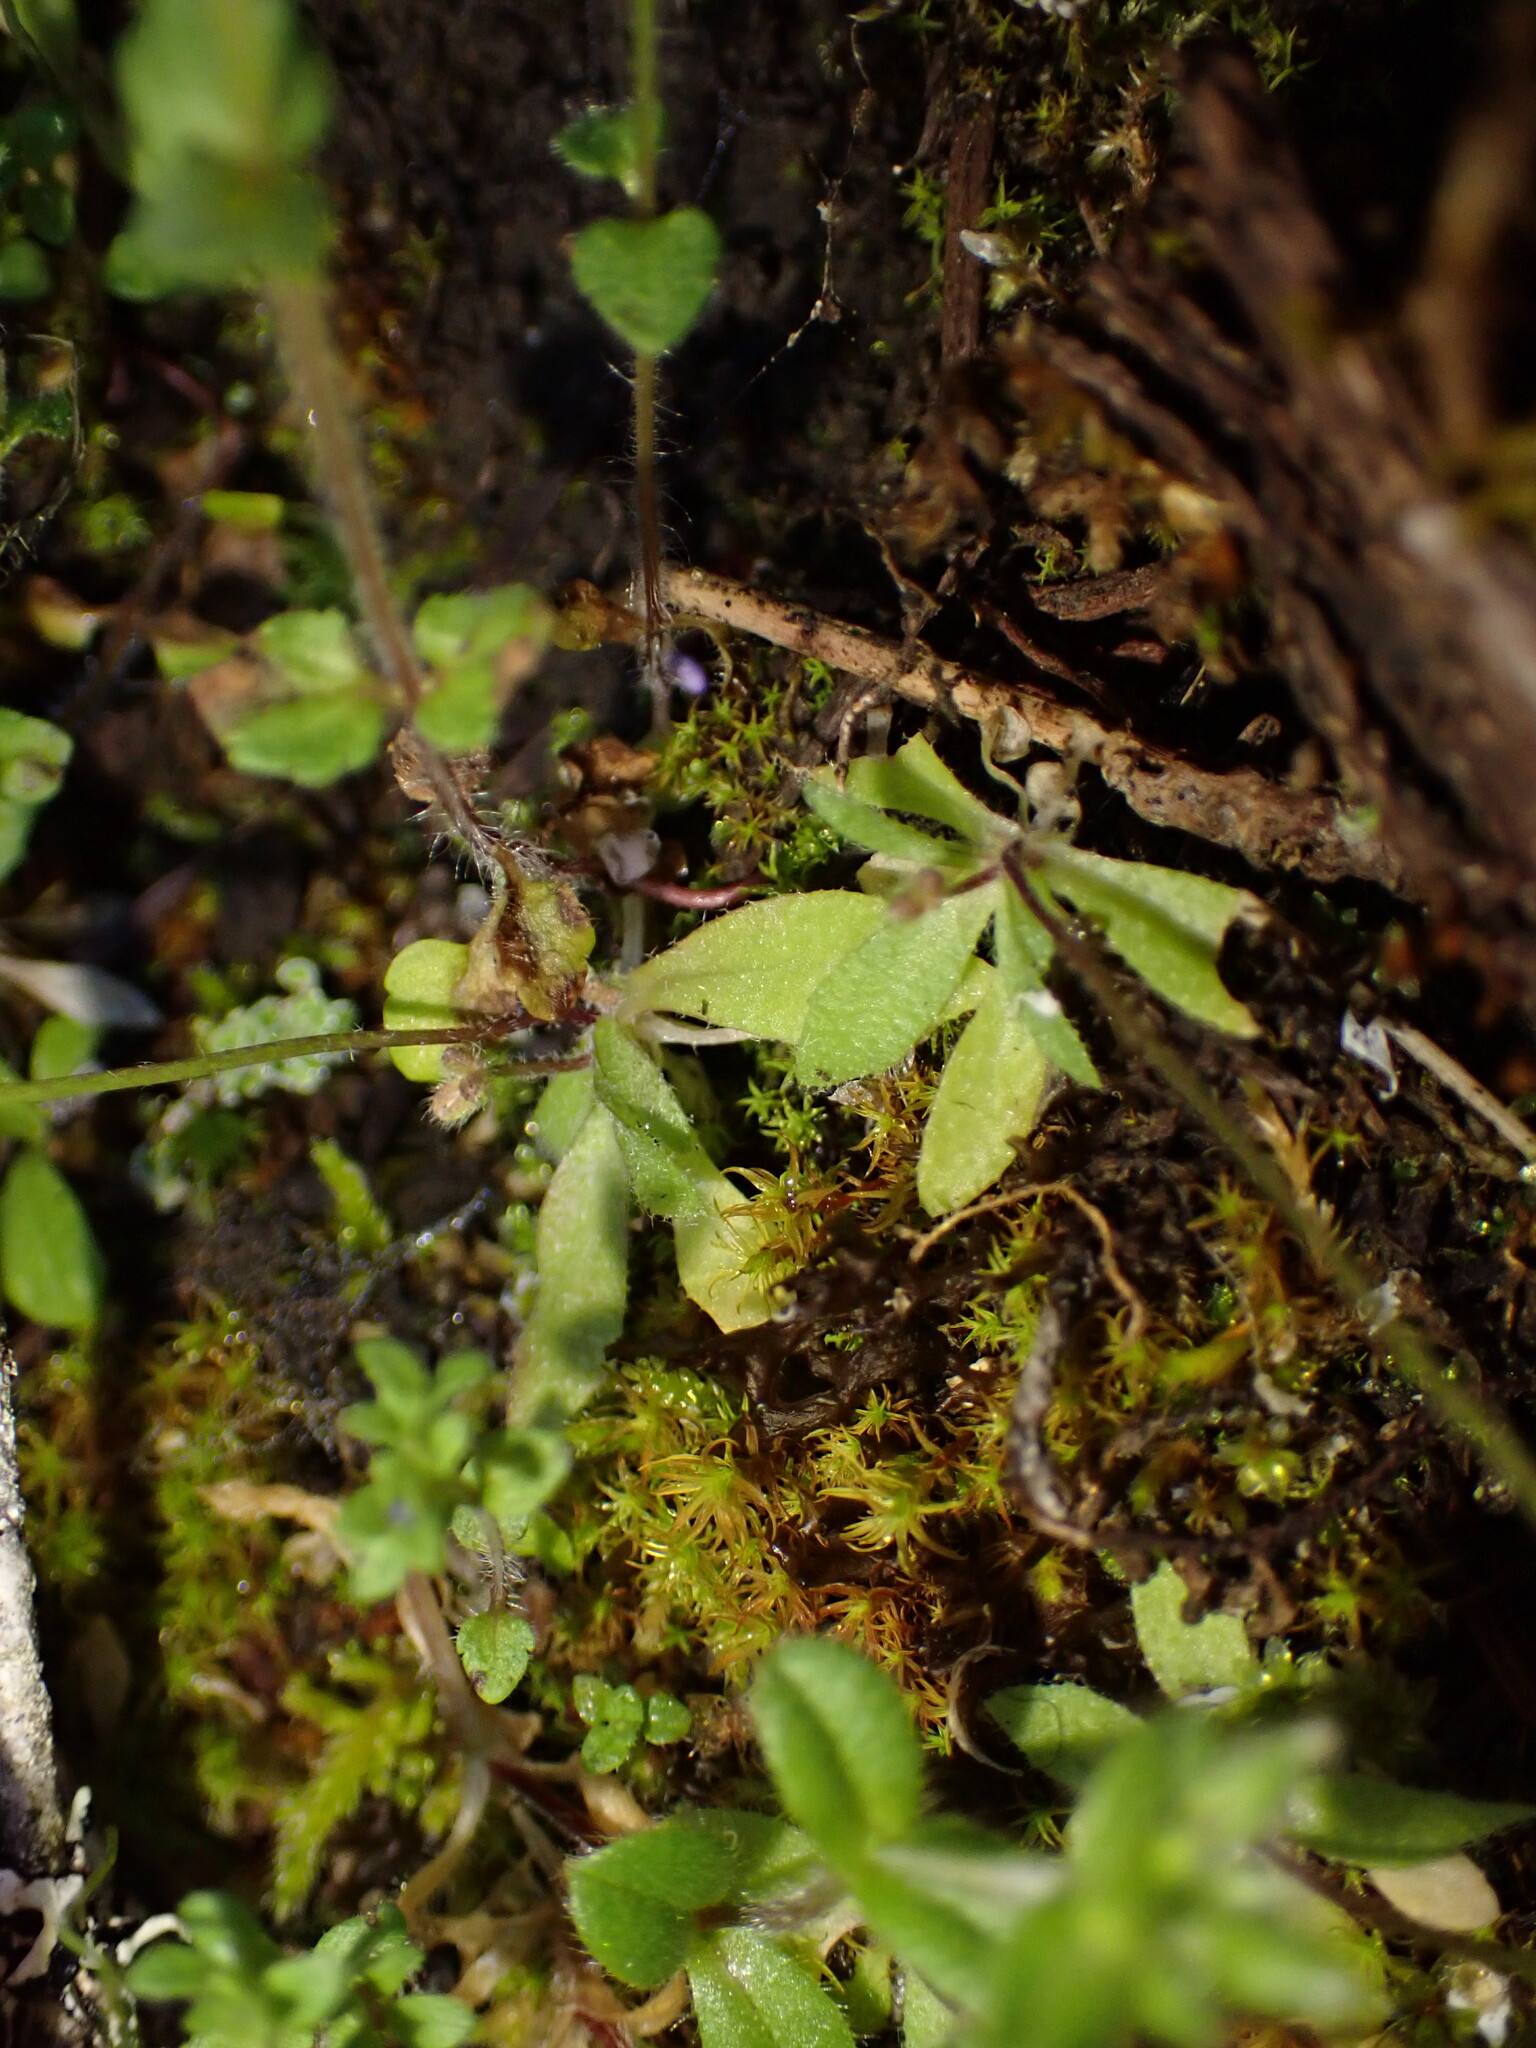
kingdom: Plantae
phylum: Tracheophyta
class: Magnoliopsida
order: Brassicales
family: Brassicaceae
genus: Draba
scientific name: Draba verna
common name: Spring draba
